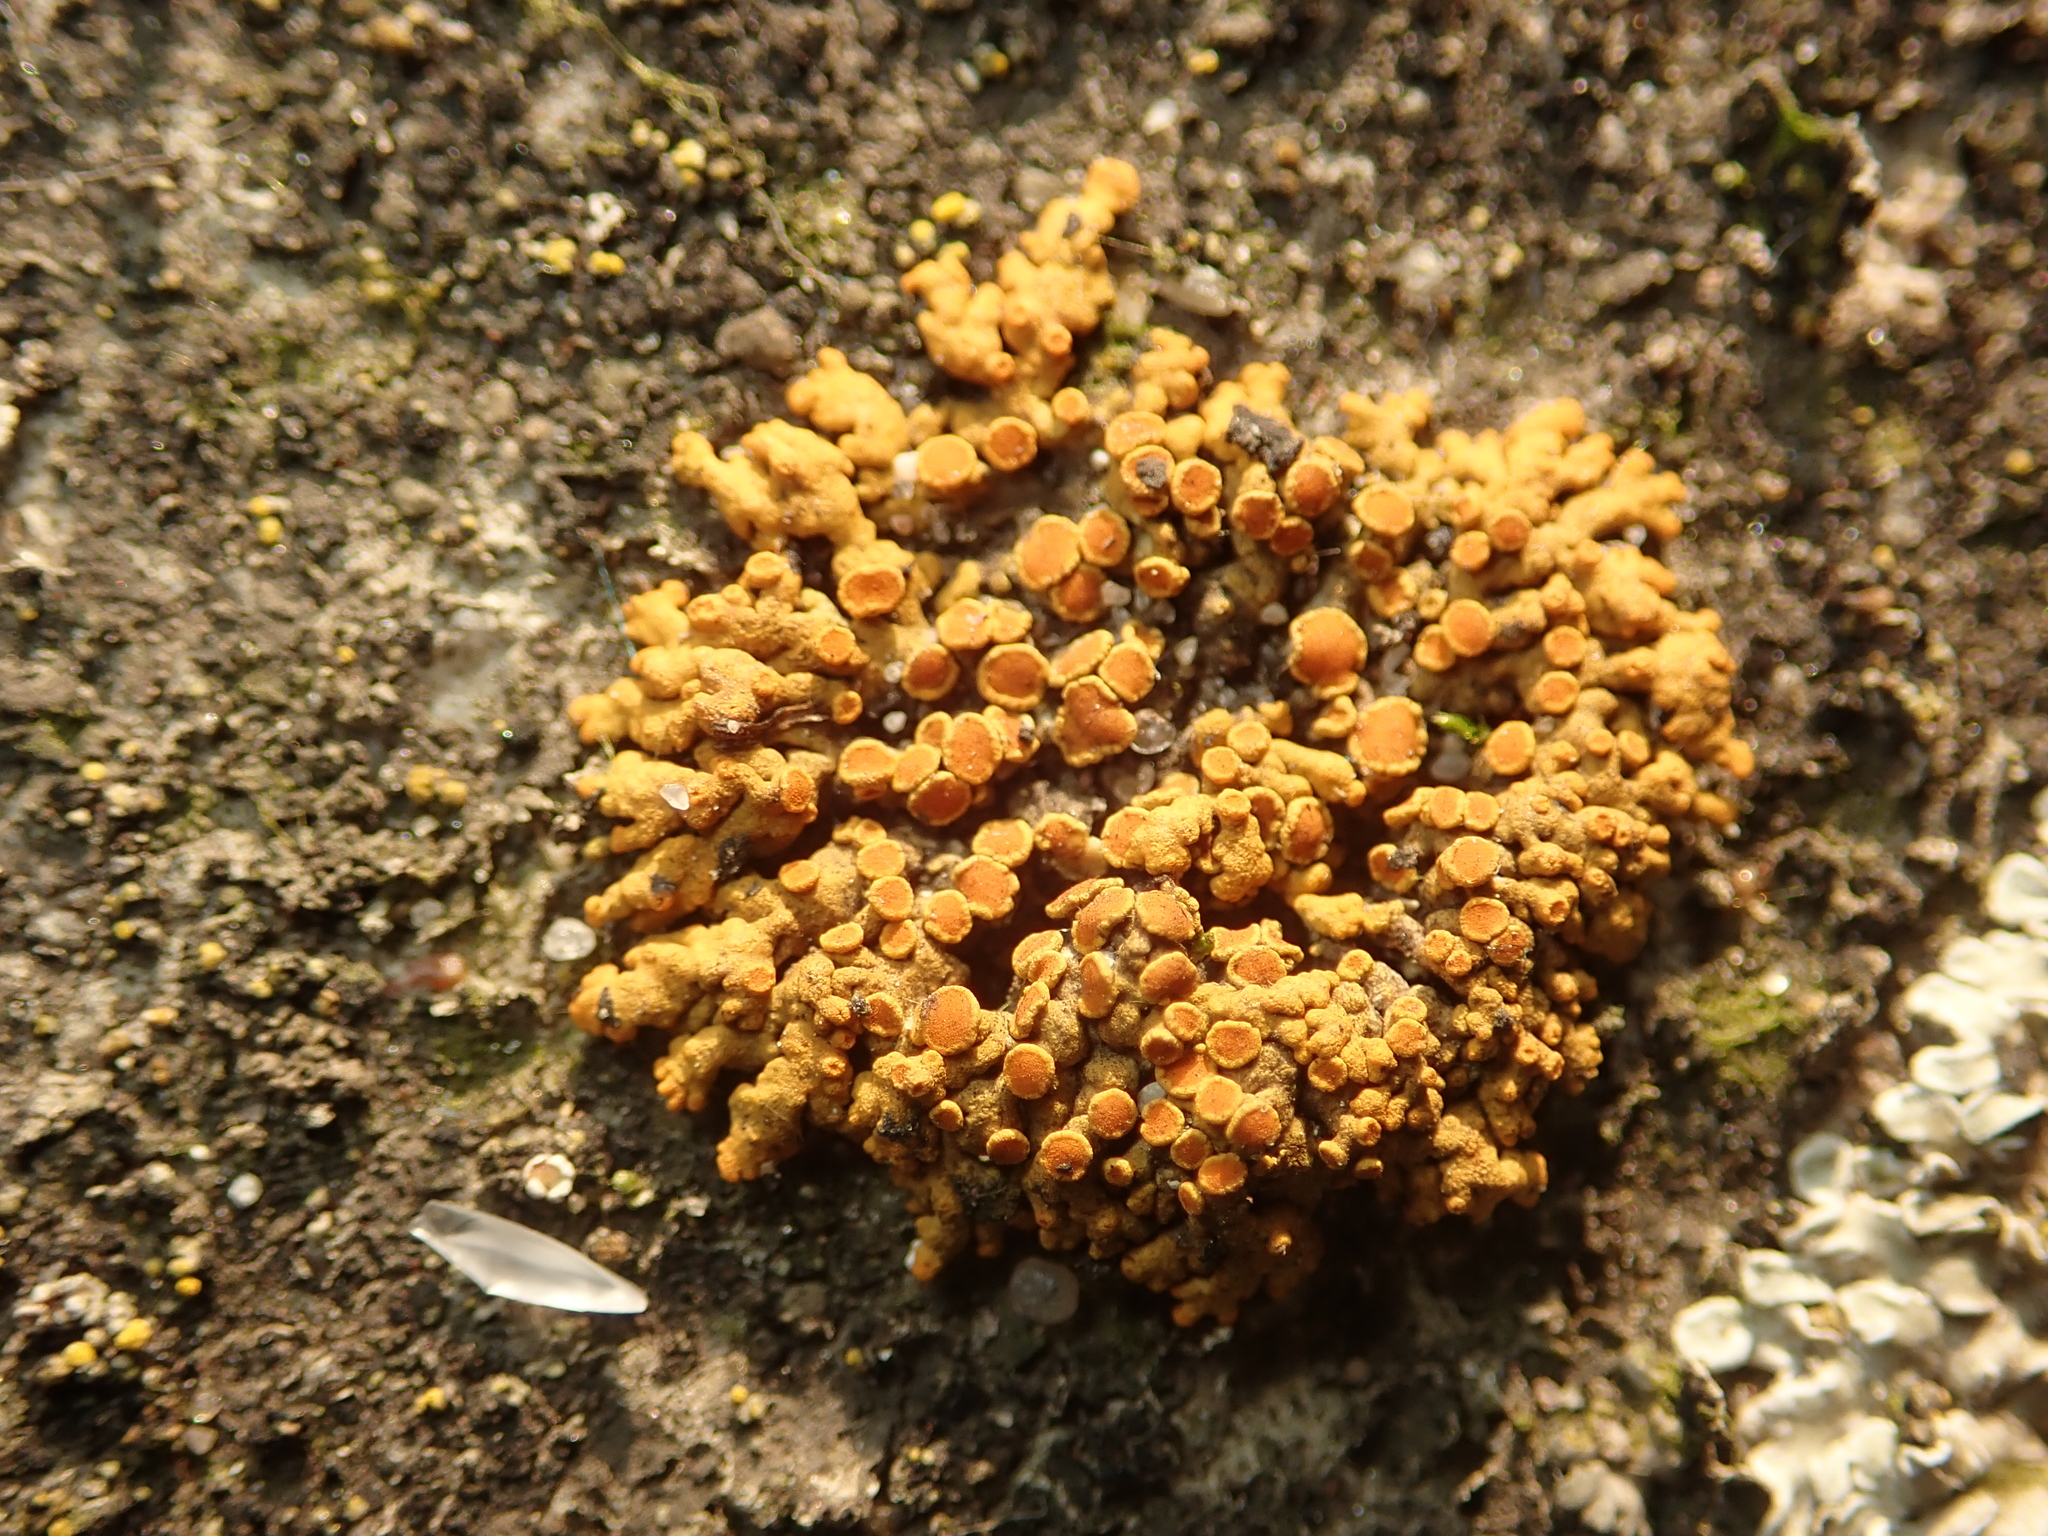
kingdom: Fungi
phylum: Ascomycota
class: Lecanoromycetes
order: Teloschistales
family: Teloschistaceae
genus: Xanthoria
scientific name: Xanthoria elegans
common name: Elegant sunburst lichen
